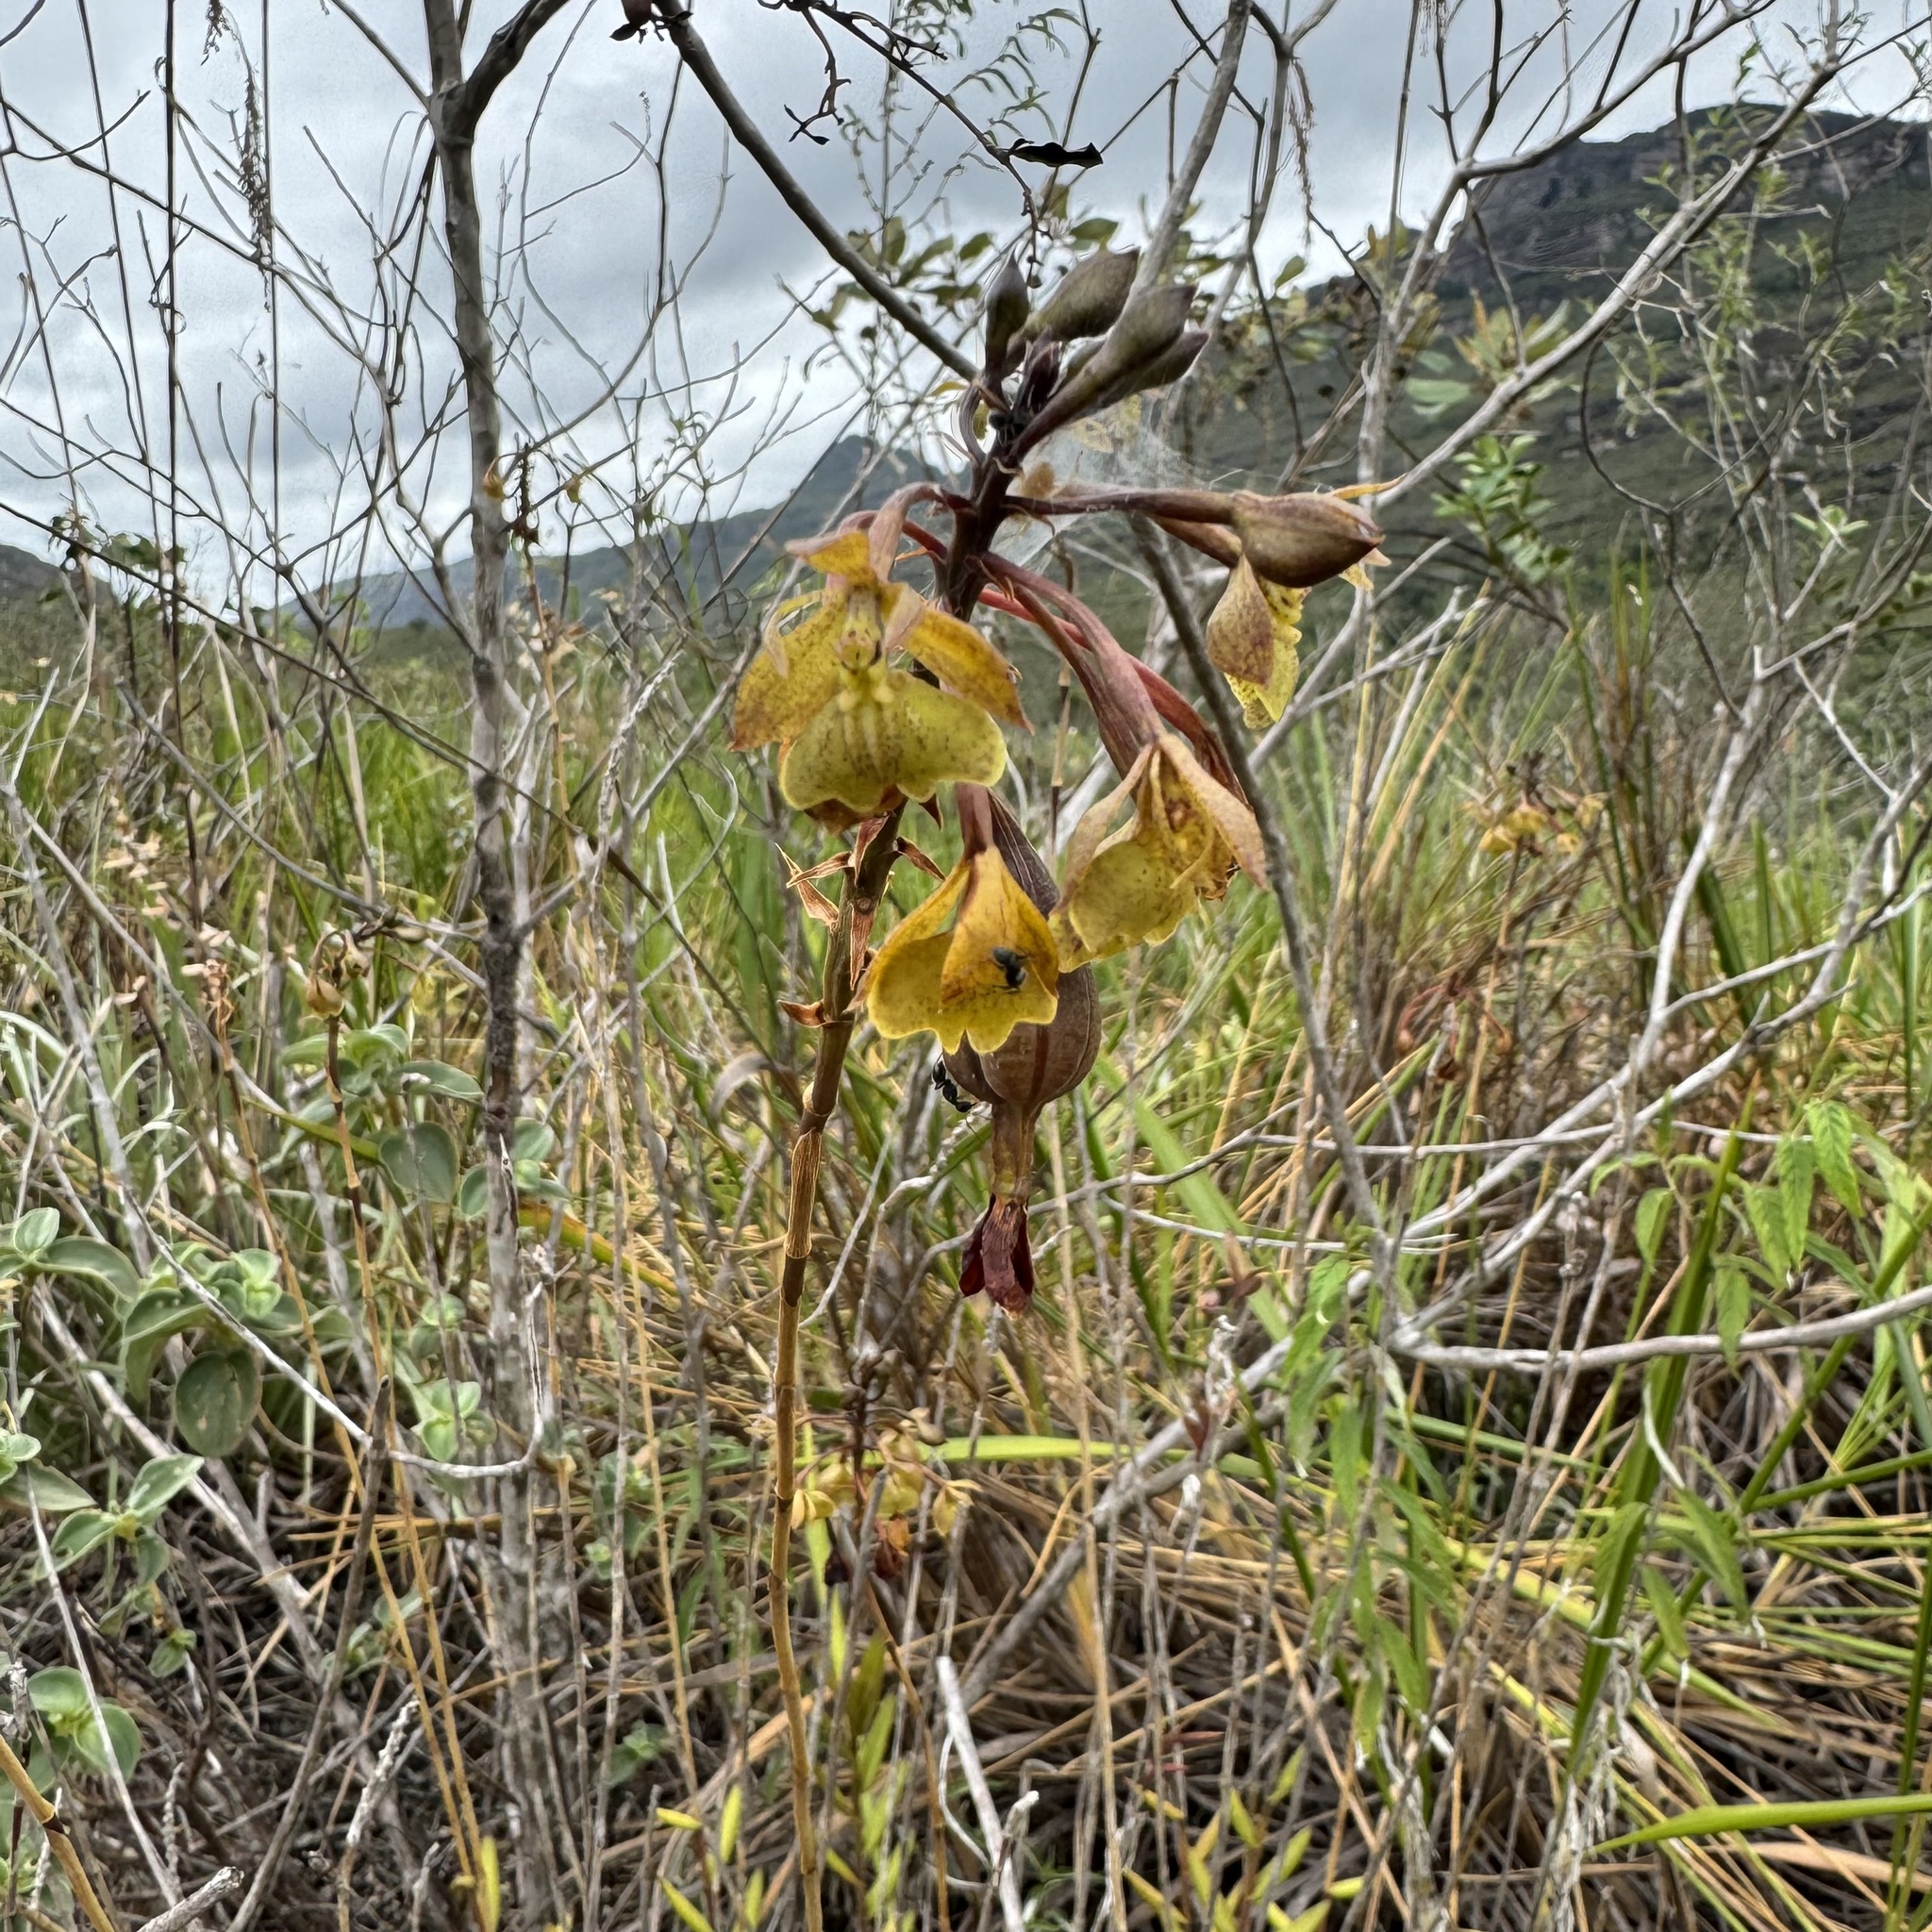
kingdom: Plantae
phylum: Tracheophyta
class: Liliopsida
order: Asparagales
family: Orchidaceae
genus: Epidendrum
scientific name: Epidendrum orchidiflorum
